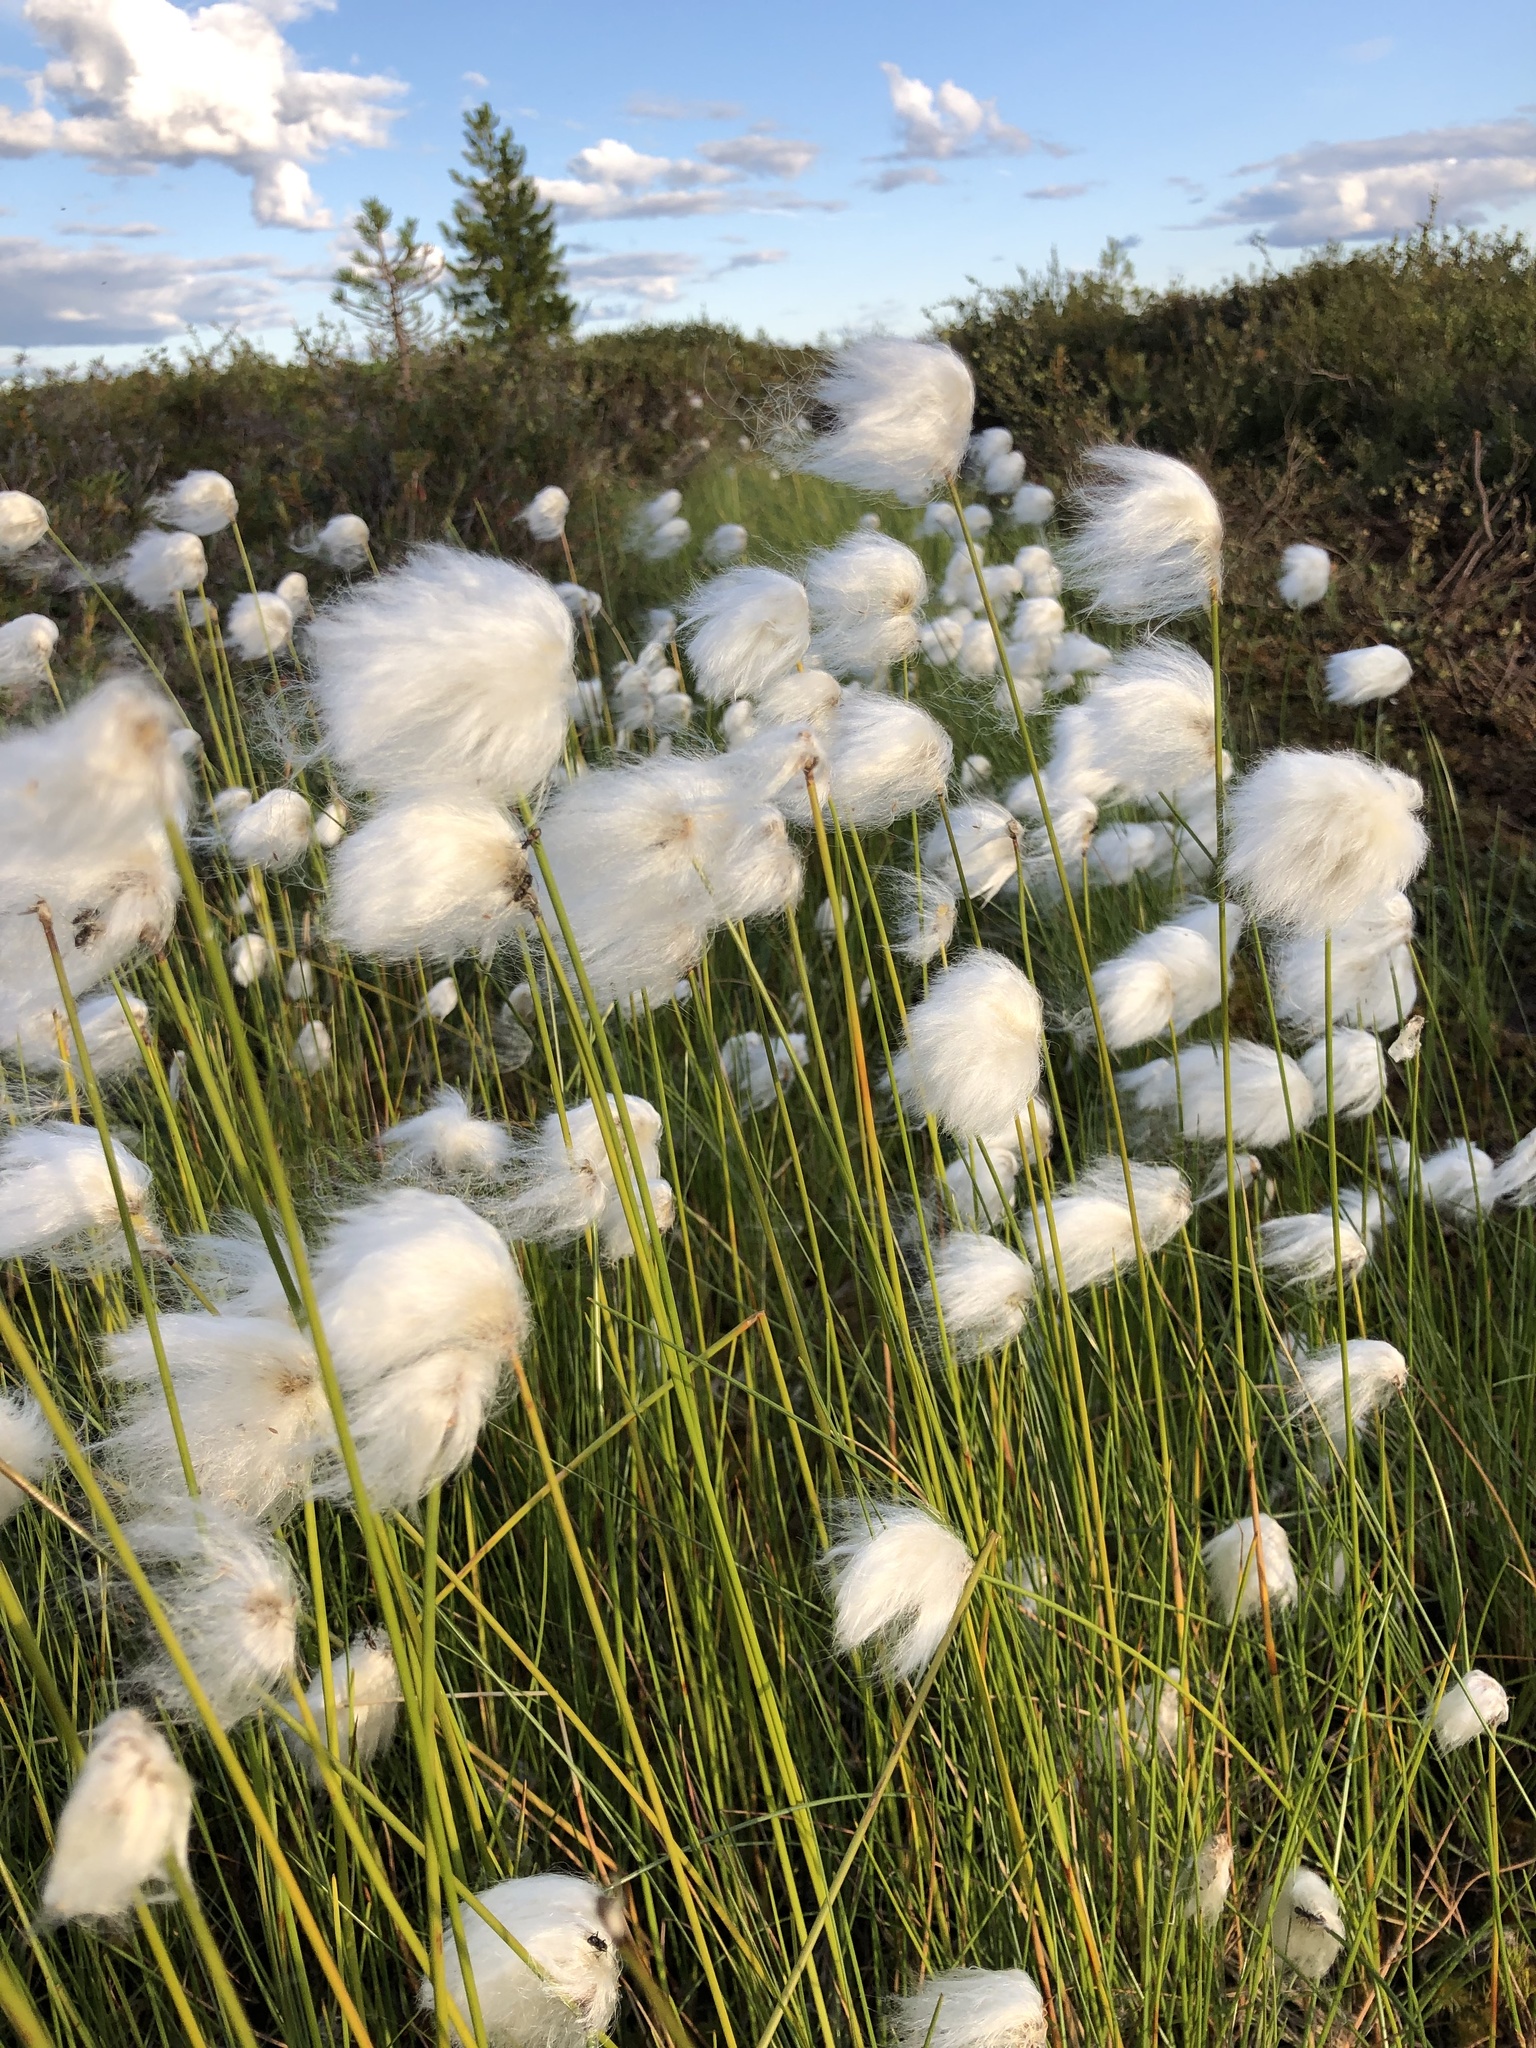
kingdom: Plantae
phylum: Tracheophyta
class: Liliopsida
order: Poales
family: Cyperaceae
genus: Eriophorum
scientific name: Eriophorum scheuchzeri
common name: Scheuchzer's cottongrass
